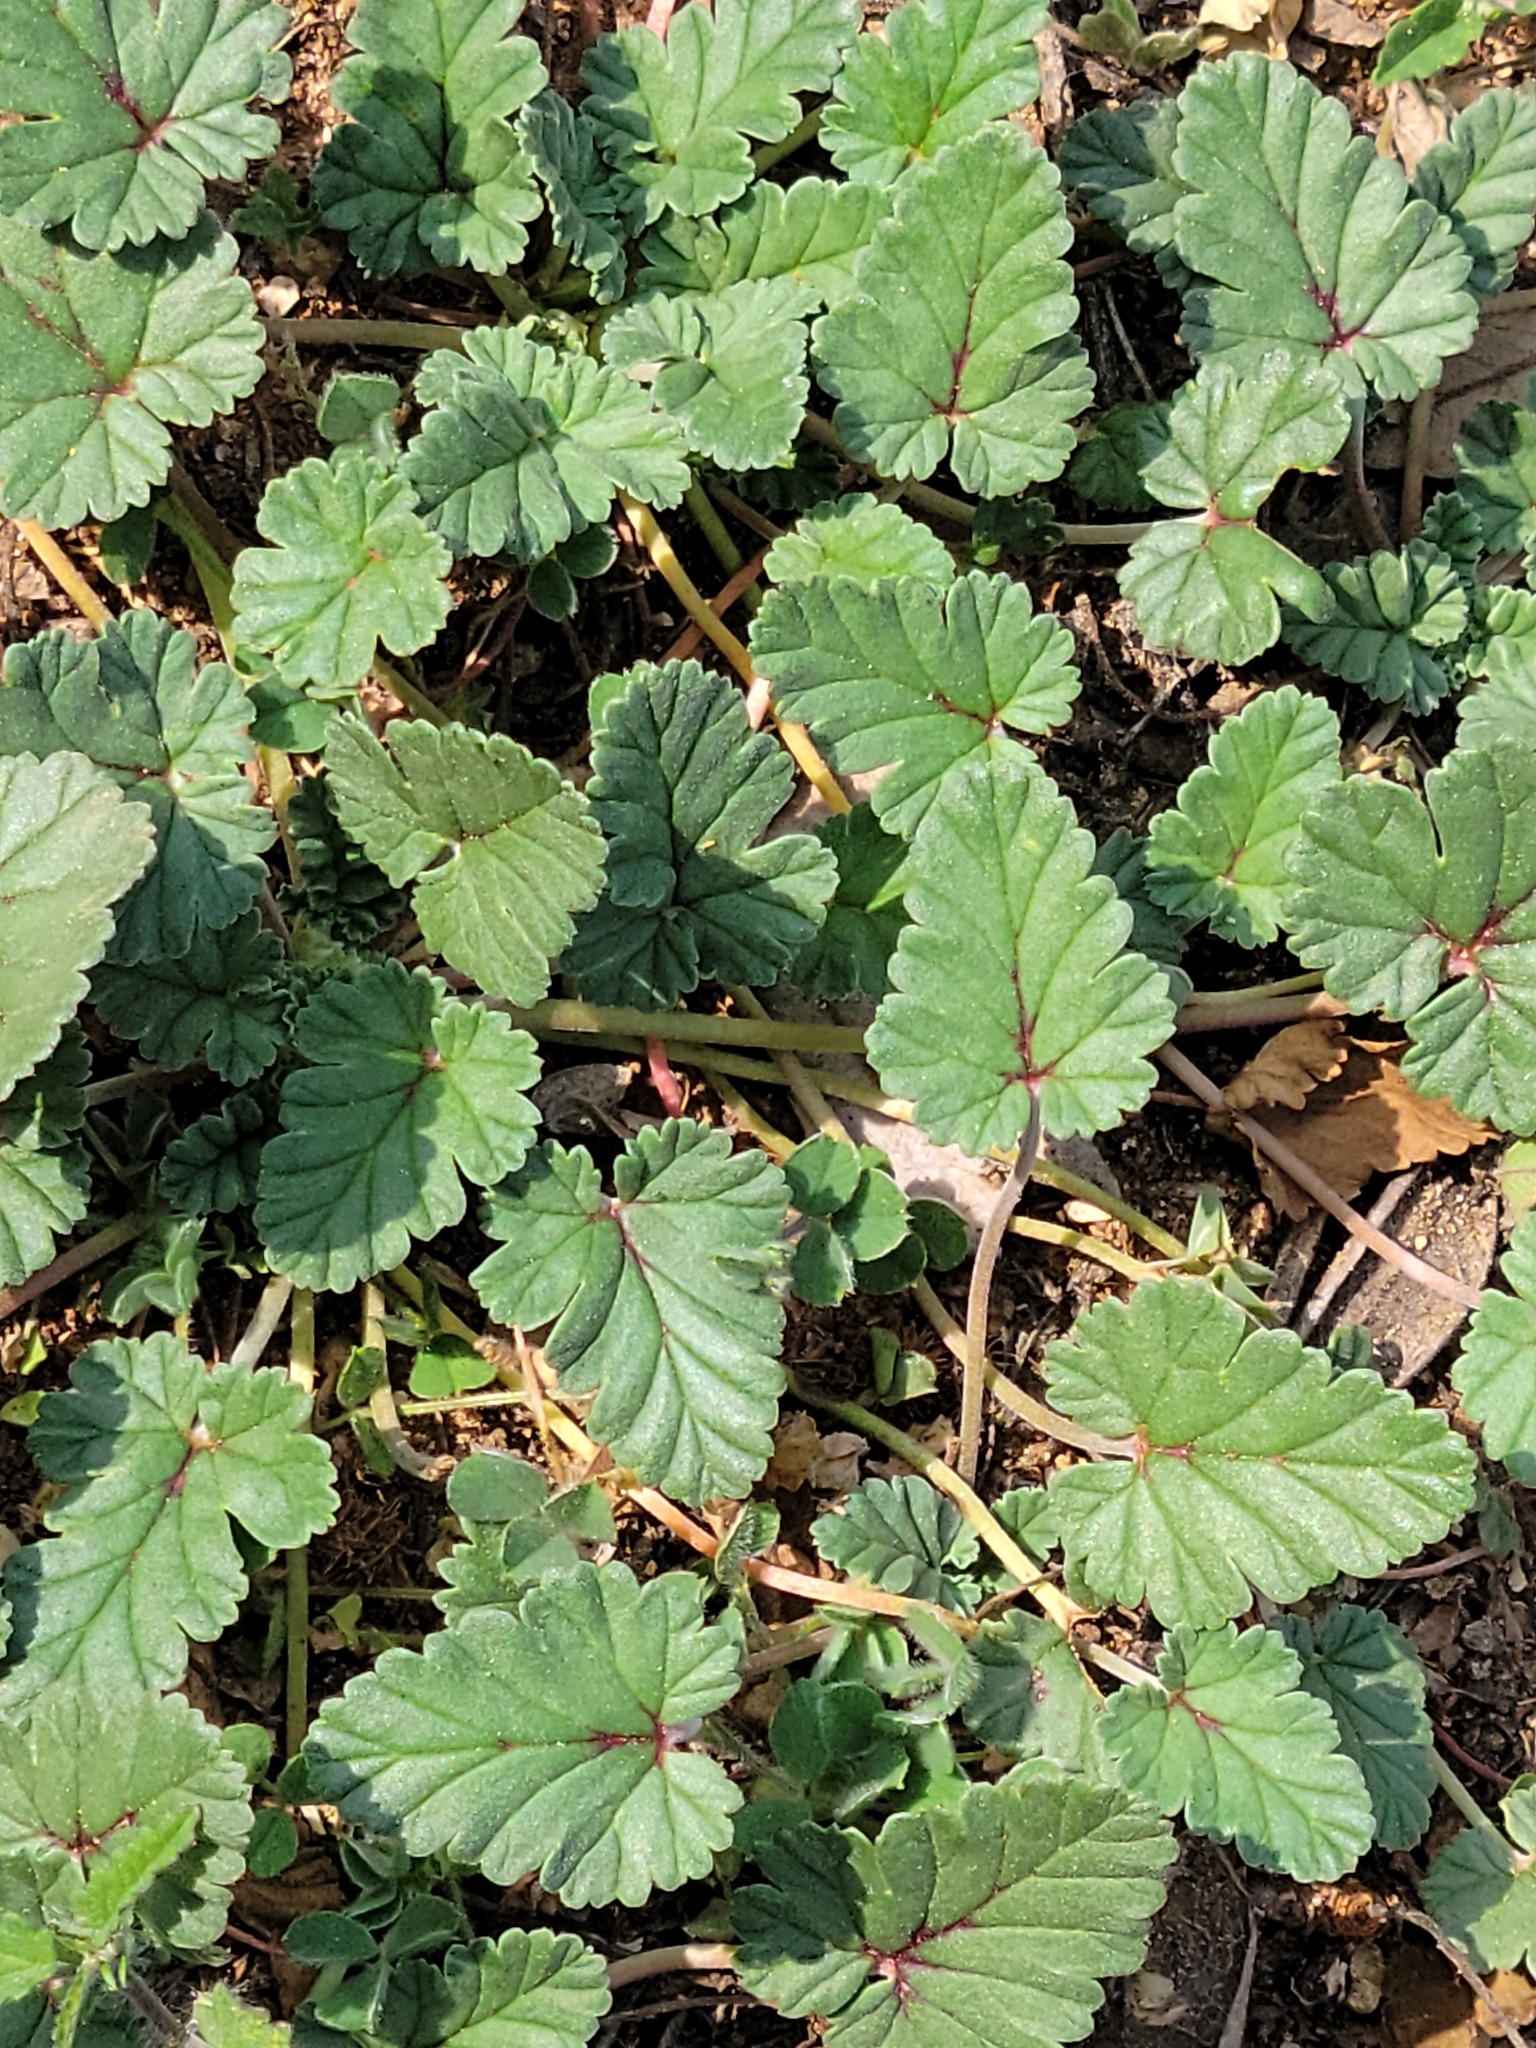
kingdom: Plantae
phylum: Tracheophyta
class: Magnoliopsida
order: Geraniales
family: Geraniaceae
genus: Erodium
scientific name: Erodium texanum
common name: Texas stork's-bill
